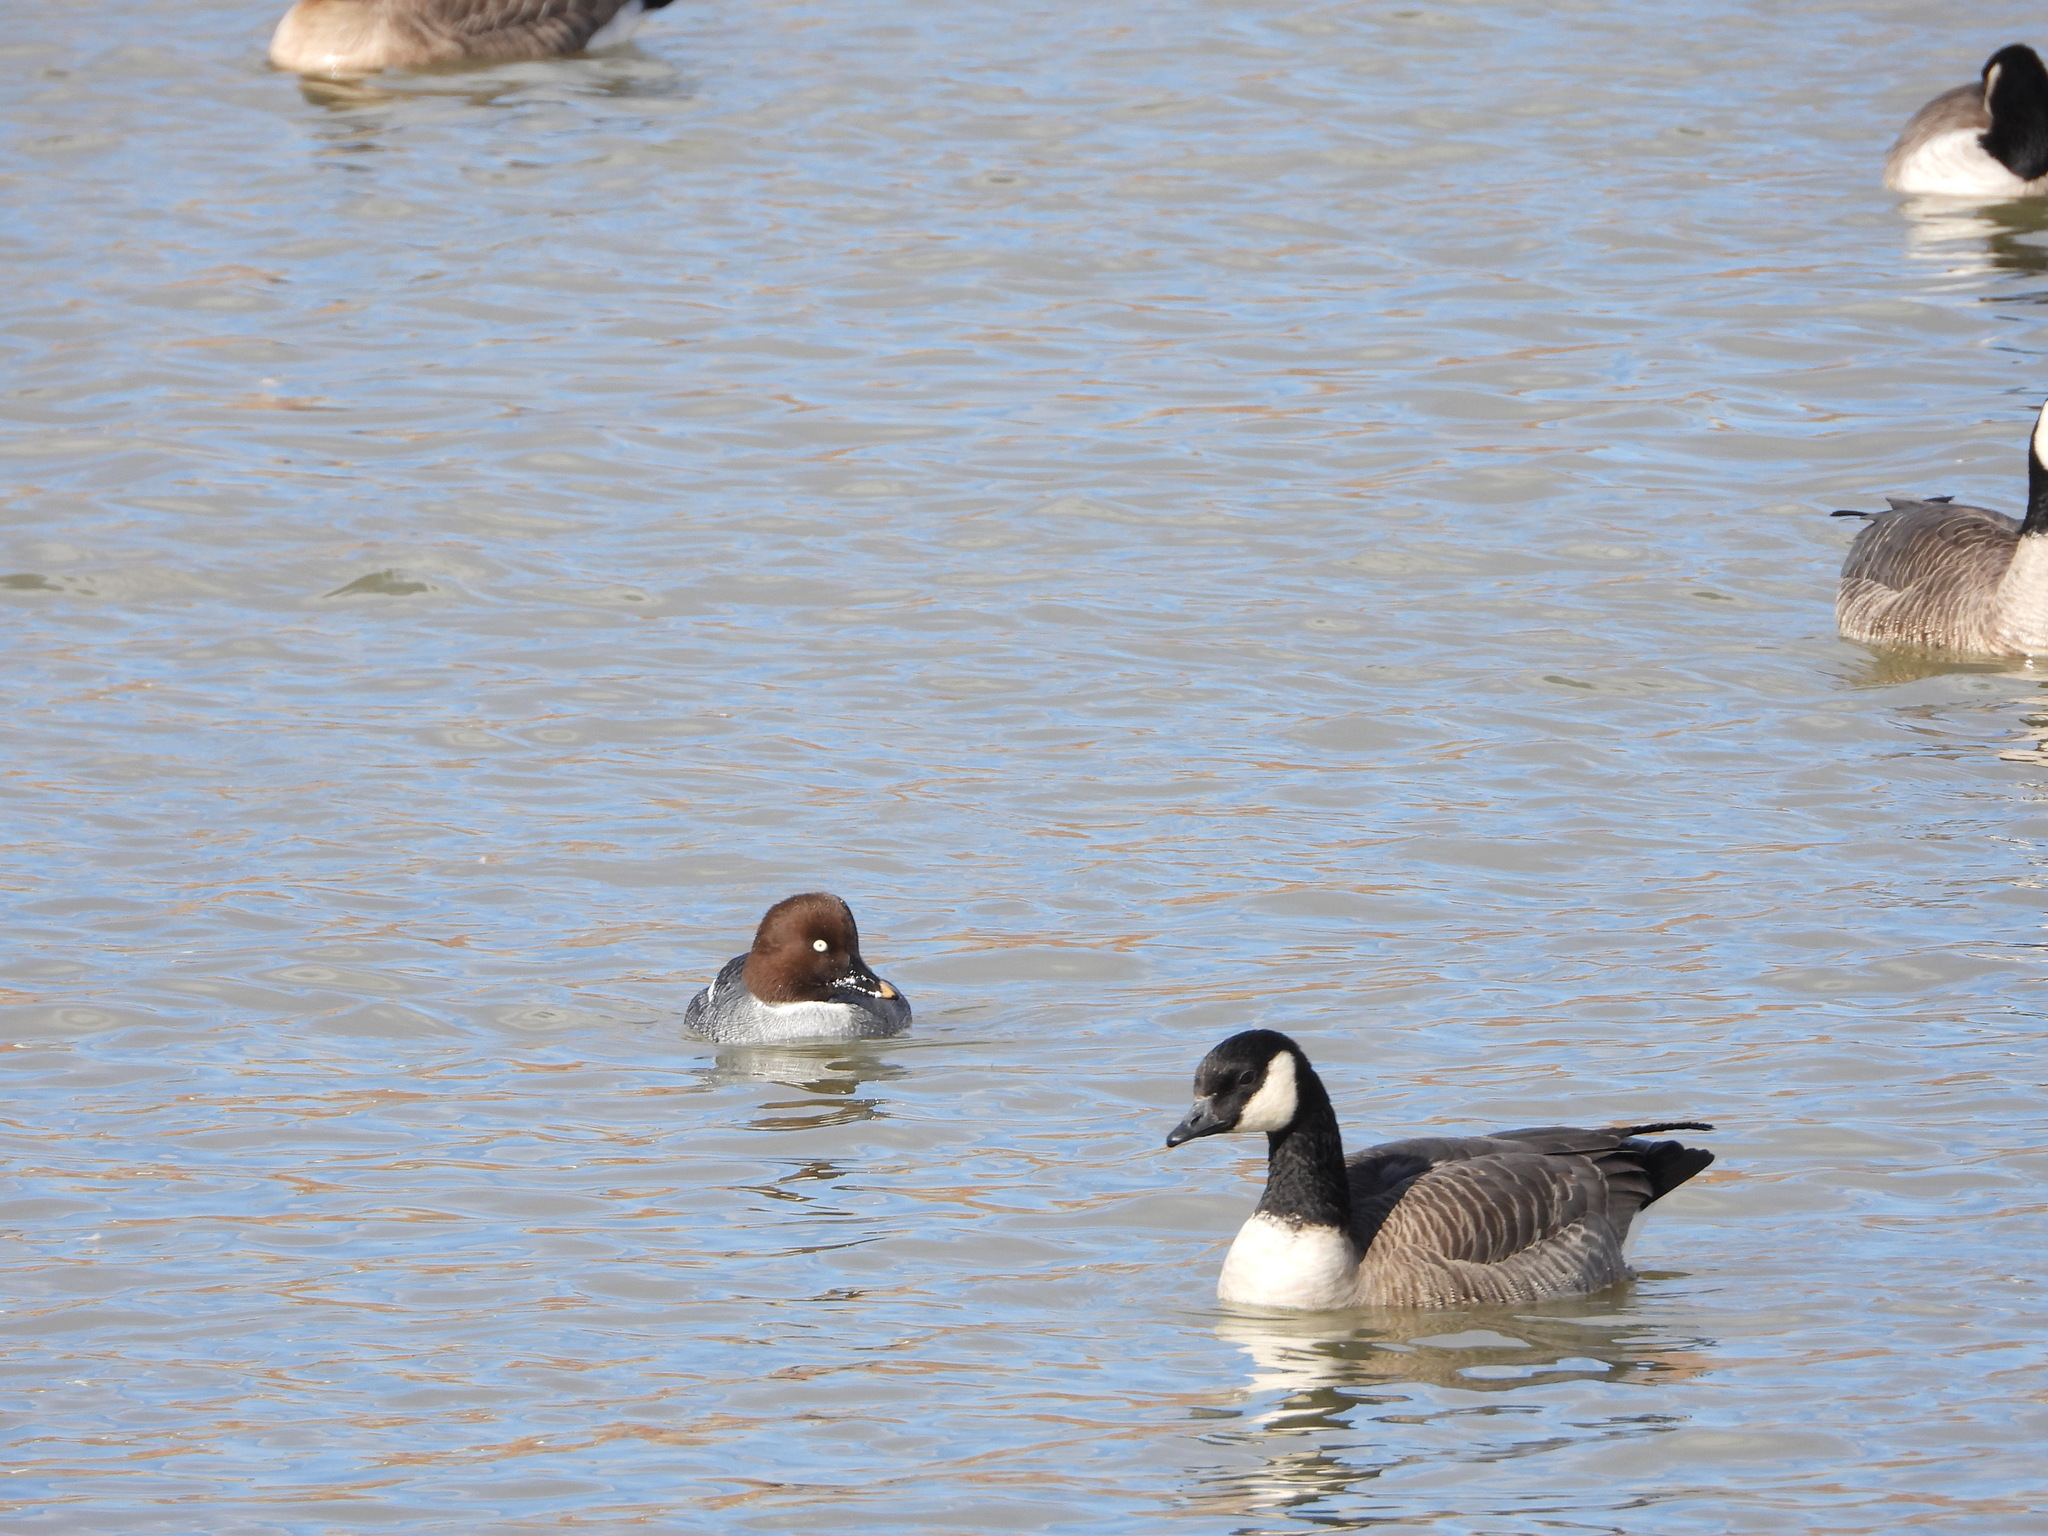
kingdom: Animalia
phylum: Chordata
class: Aves
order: Anseriformes
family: Anatidae
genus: Bucephala
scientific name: Bucephala clangula
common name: Common goldeneye
